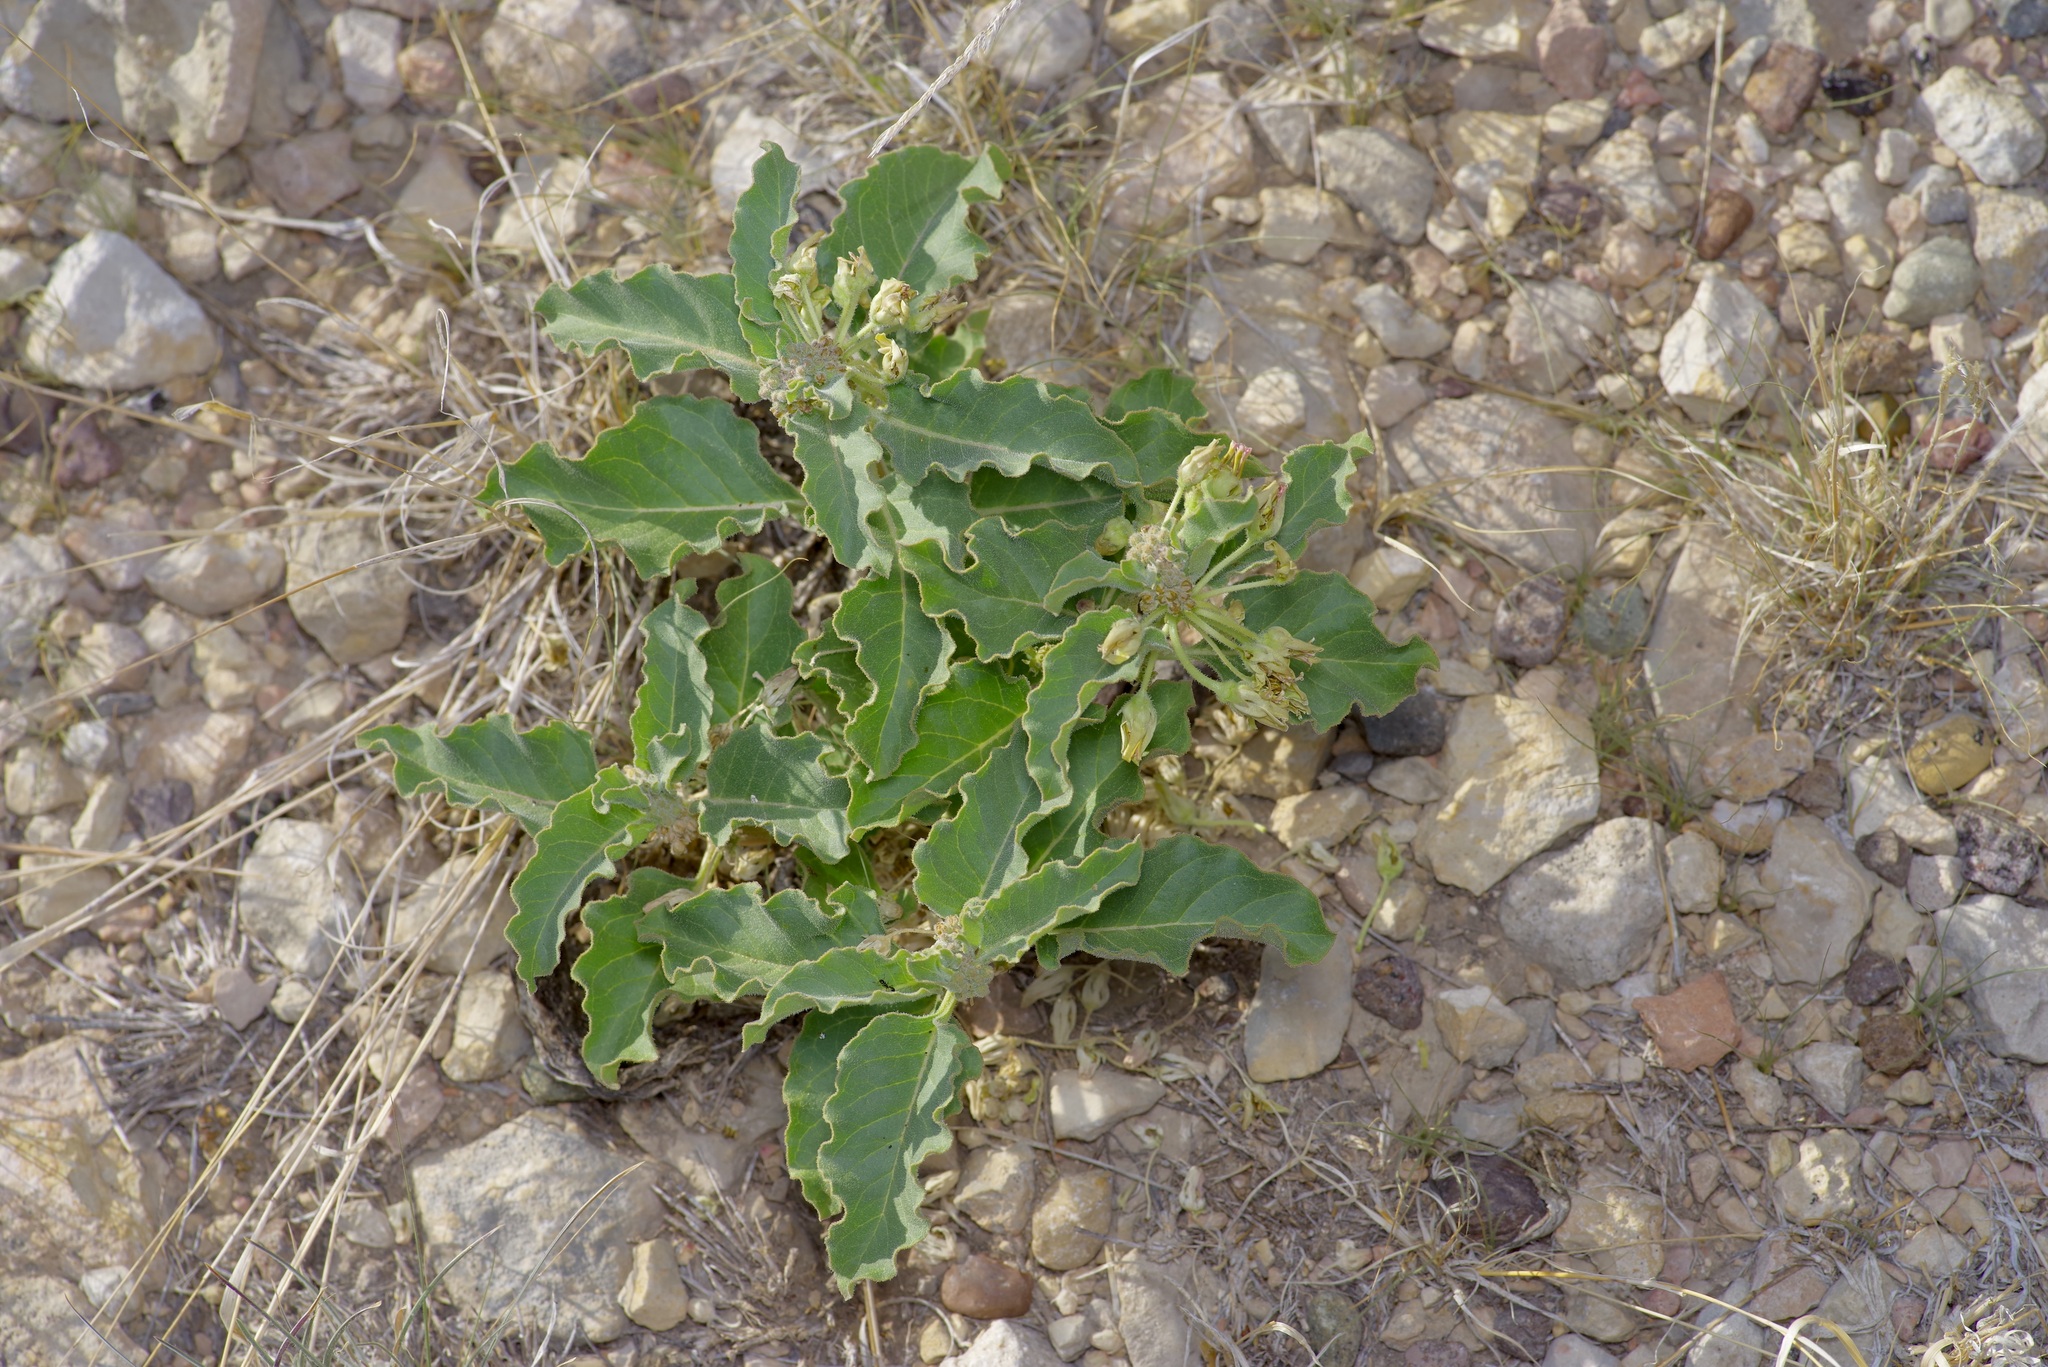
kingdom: Plantae
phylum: Tracheophyta
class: Magnoliopsida
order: Gentianales
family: Apocynaceae
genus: Asclepias
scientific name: Asclepias oenotheroides
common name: Zizotes milkweed
